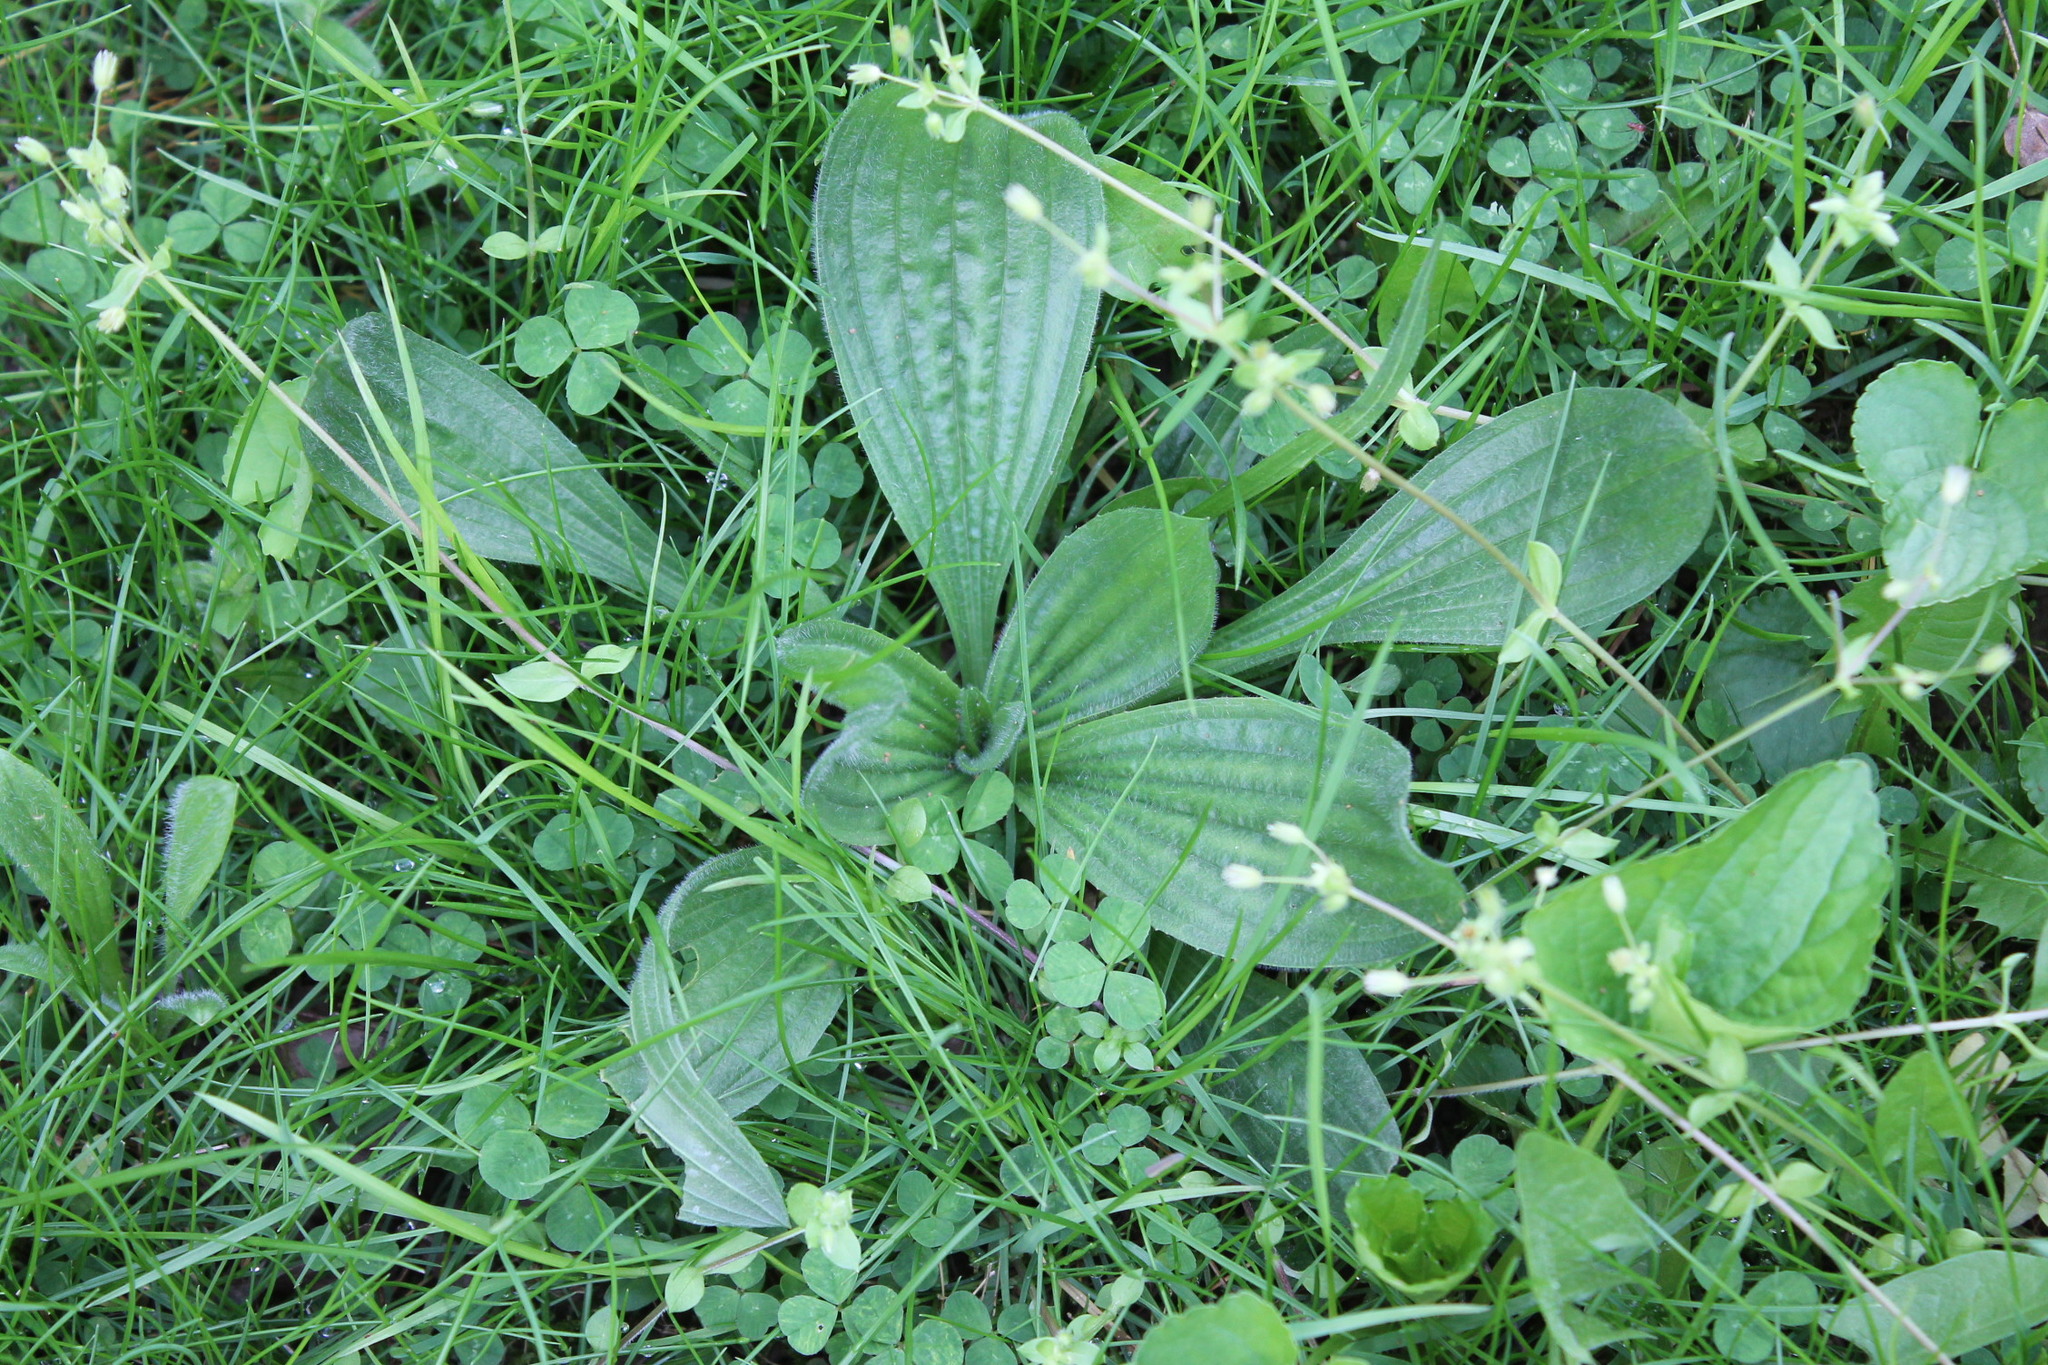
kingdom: Plantae
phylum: Tracheophyta
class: Magnoliopsida
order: Lamiales
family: Plantaginaceae
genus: Plantago
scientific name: Plantago lanceolata
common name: Ribwort plantain
